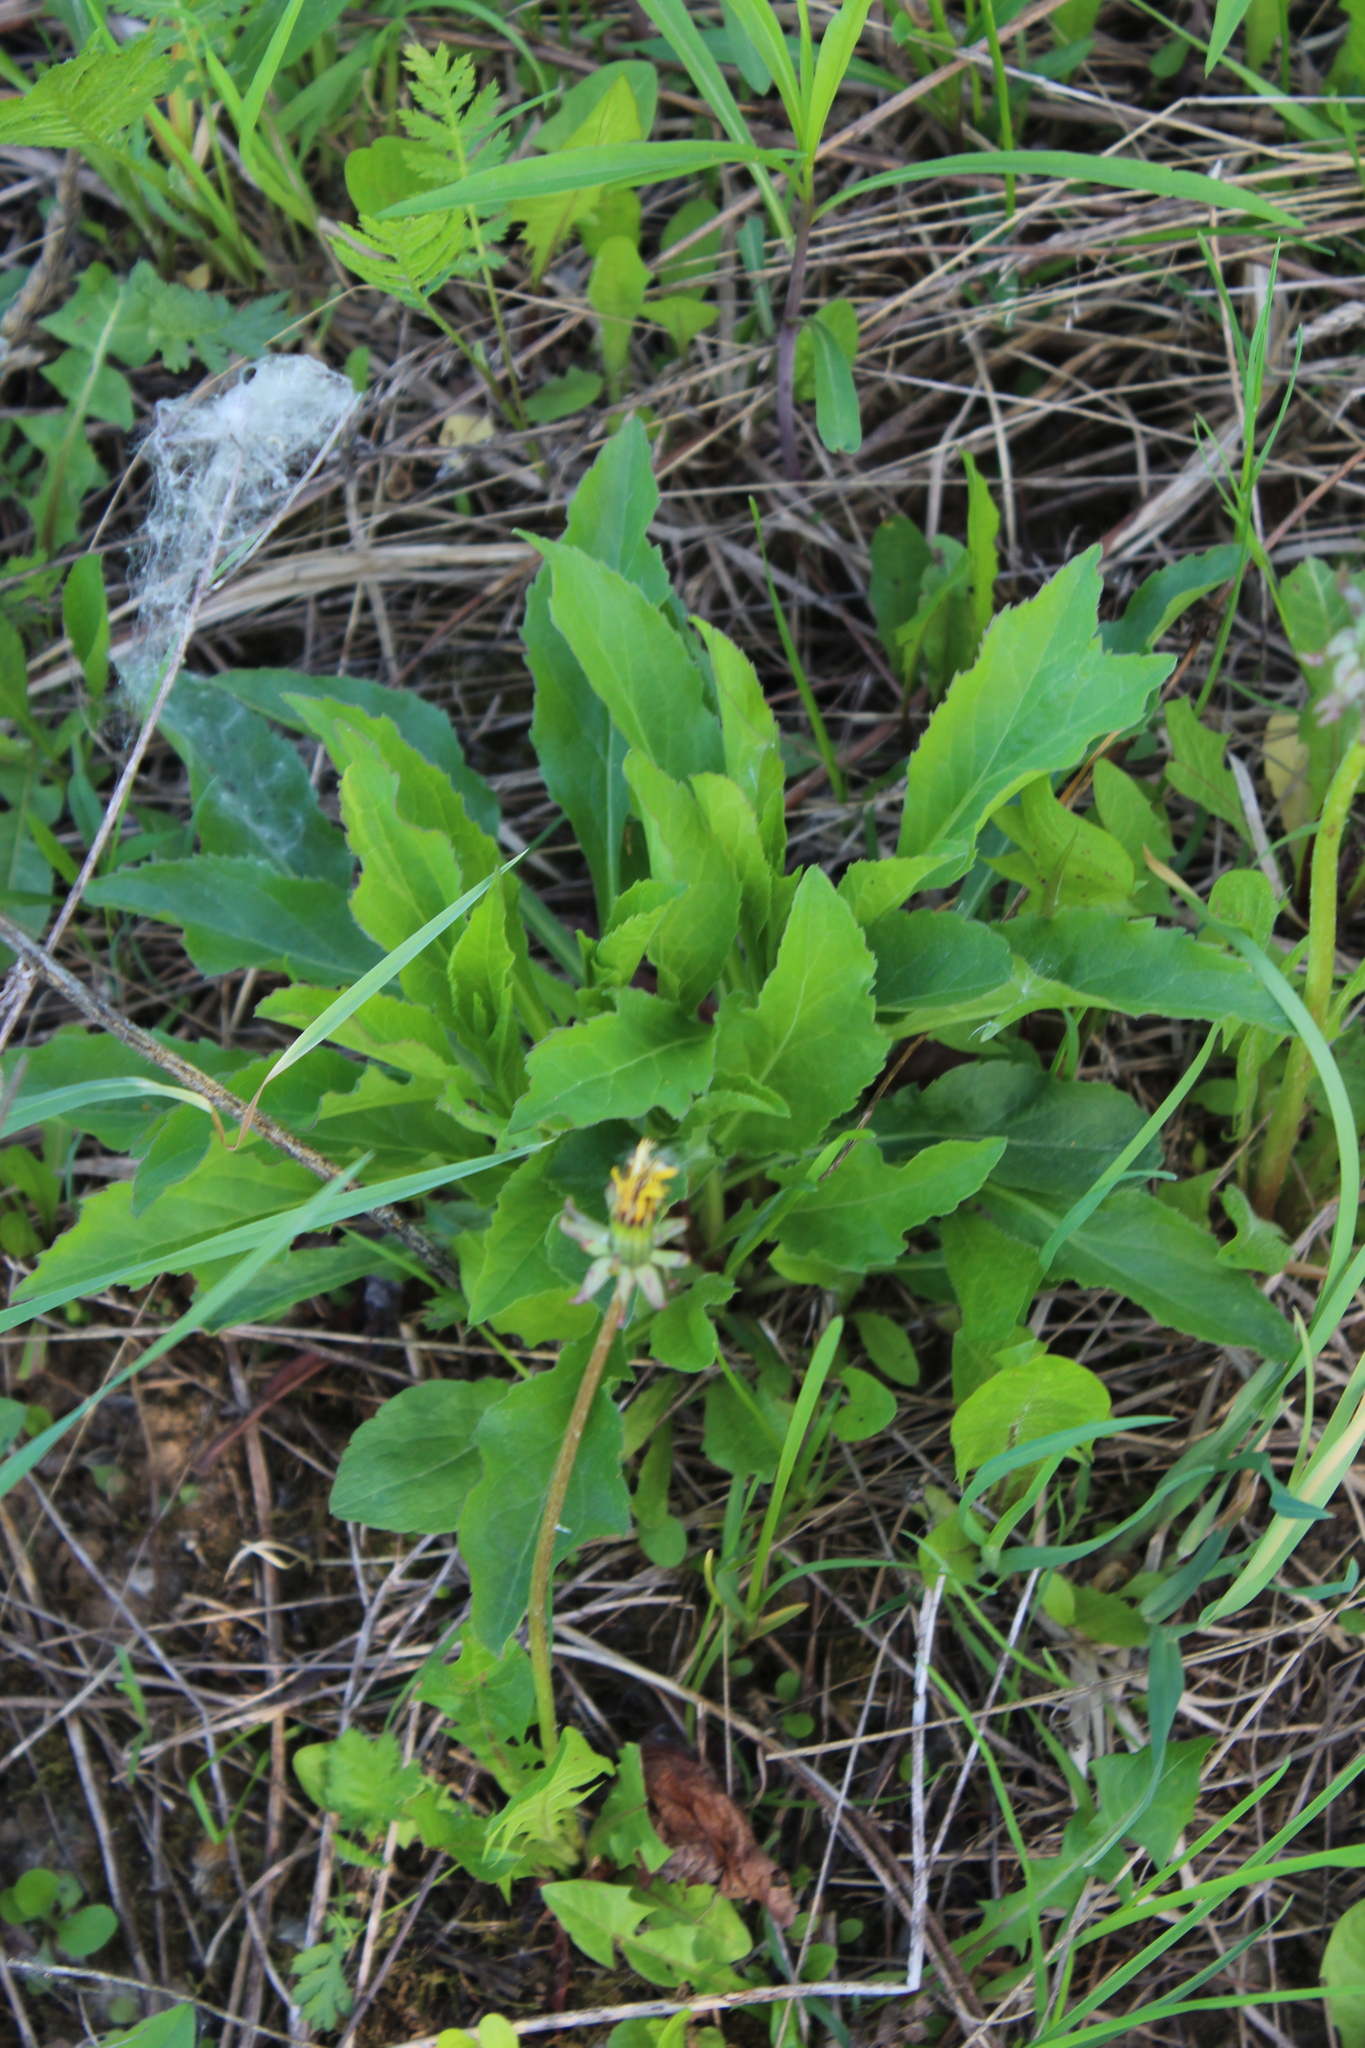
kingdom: Plantae
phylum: Tracheophyta
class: Magnoliopsida
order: Asterales
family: Asteraceae
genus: Solidago
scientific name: Solidago virgaurea
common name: Goldenrod
